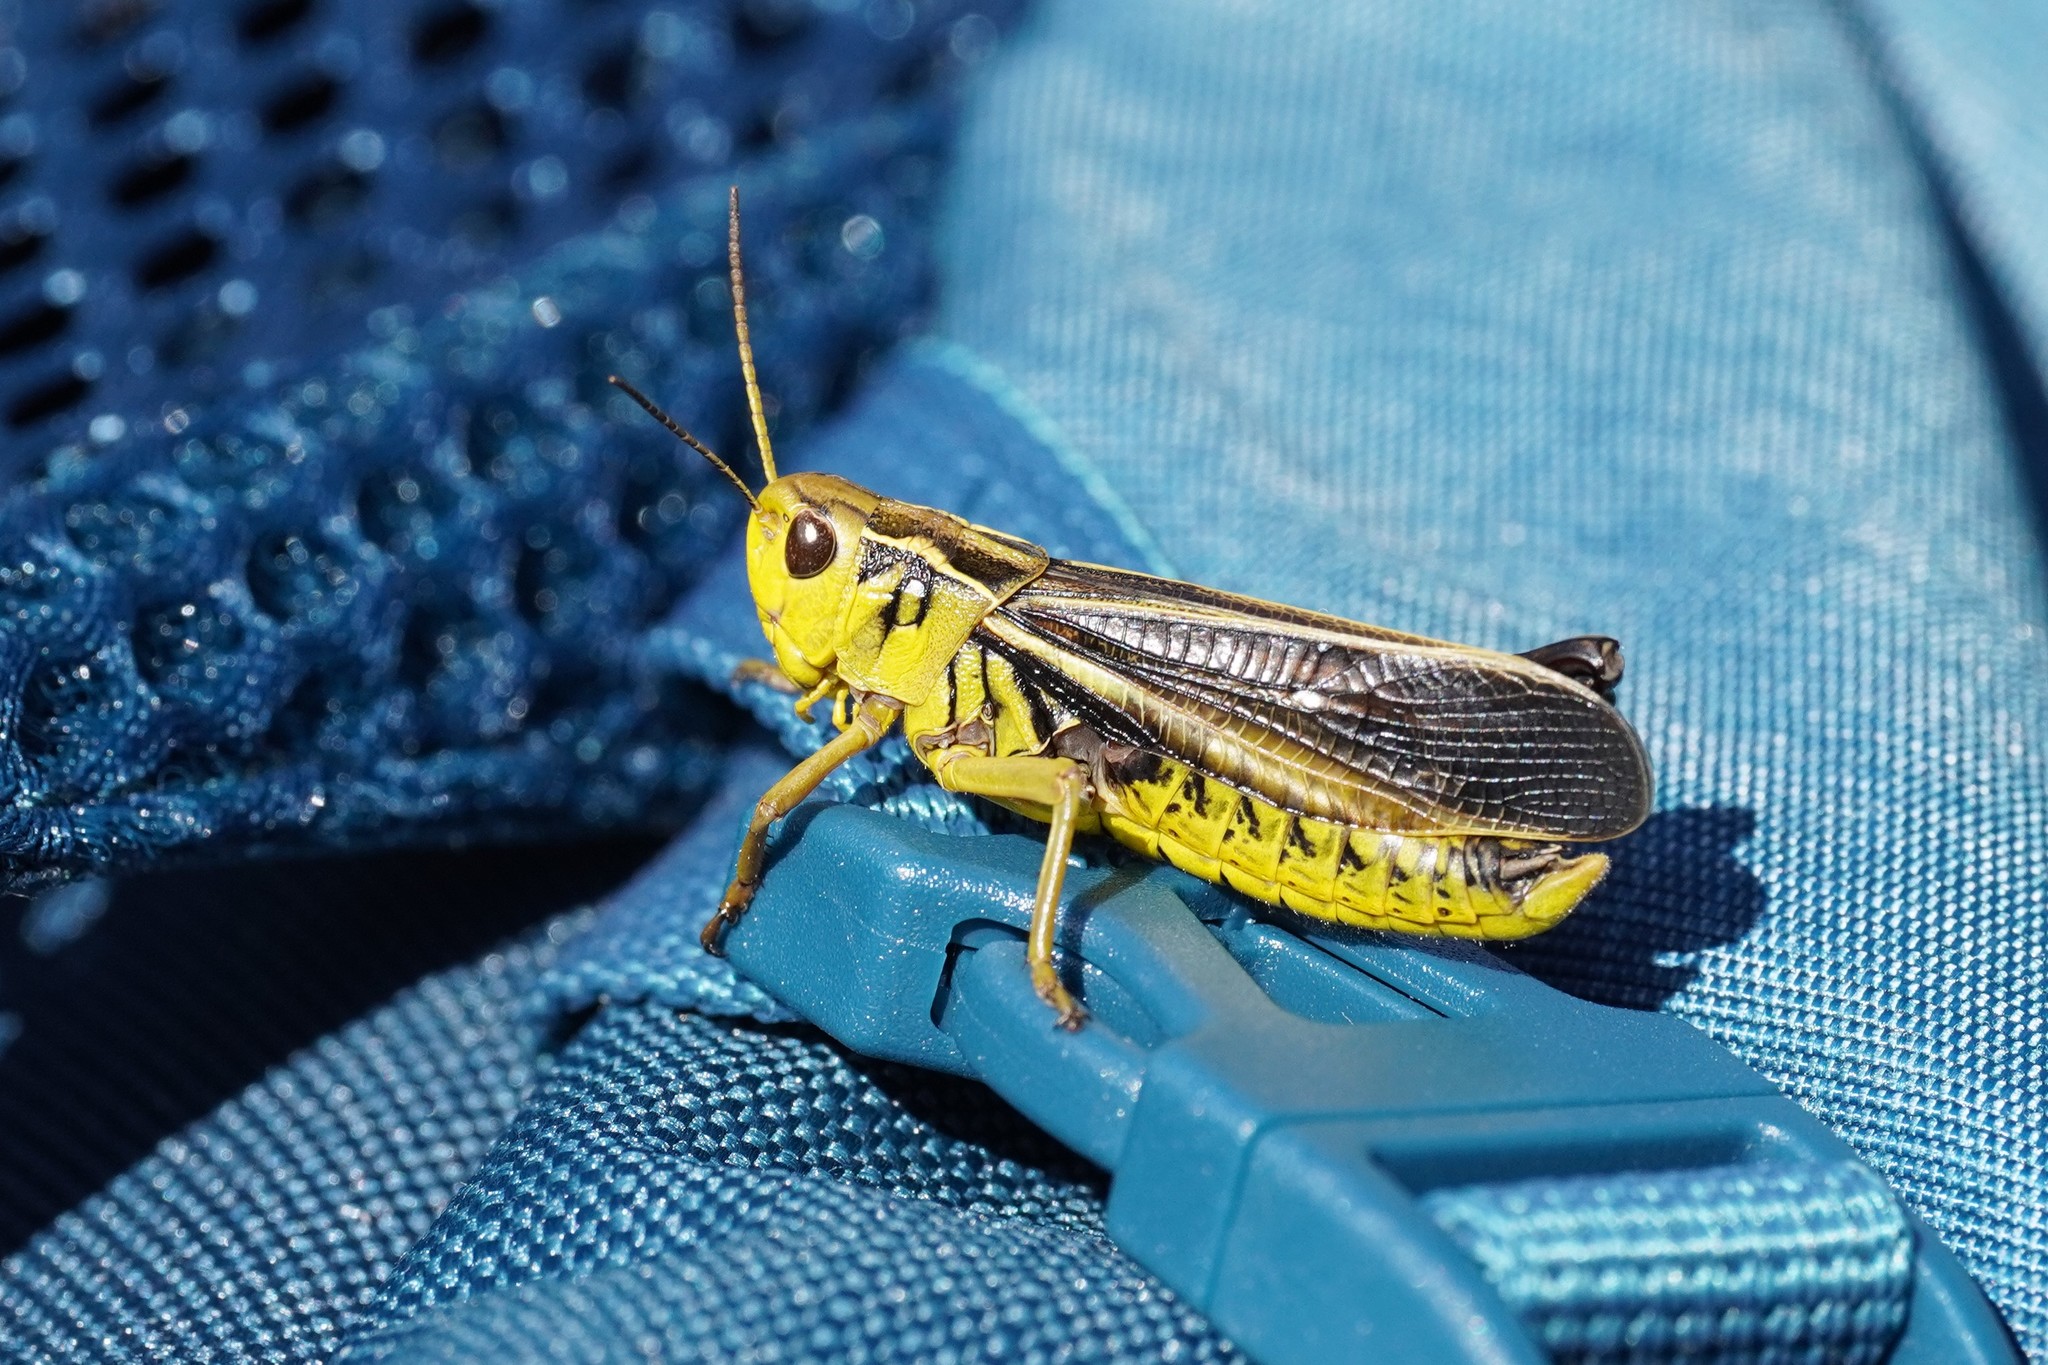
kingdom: Animalia
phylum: Arthropoda
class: Insecta
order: Orthoptera
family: Acrididae
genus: Arcyptera
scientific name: Arcyptera fusca
